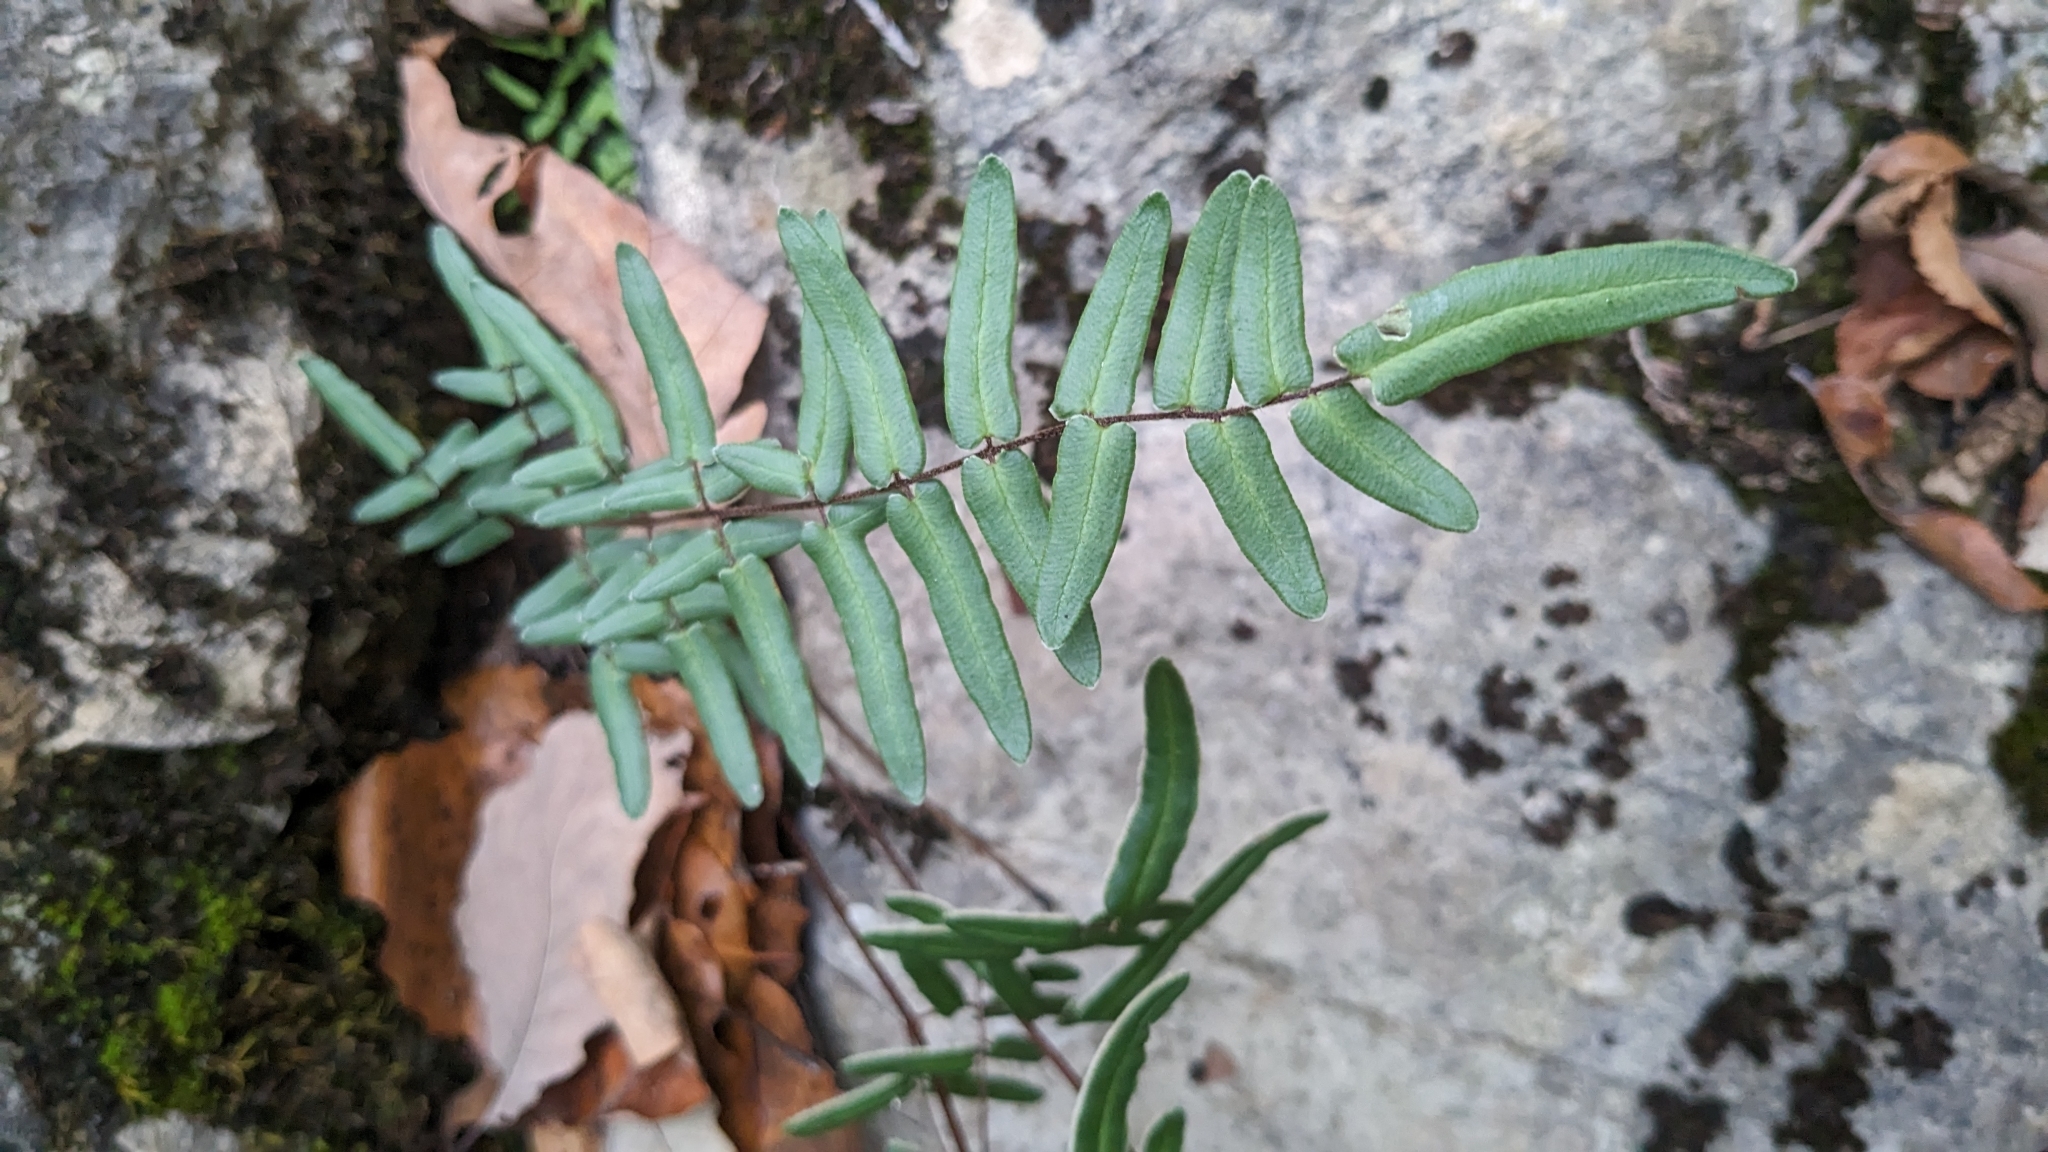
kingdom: Plantae
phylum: Tracheophyta
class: Polypodiopsida
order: Polypodiales
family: Pteridaceae
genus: Pellaea
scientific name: Pellaea atropurpurea
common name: Hairy cliffbrake
